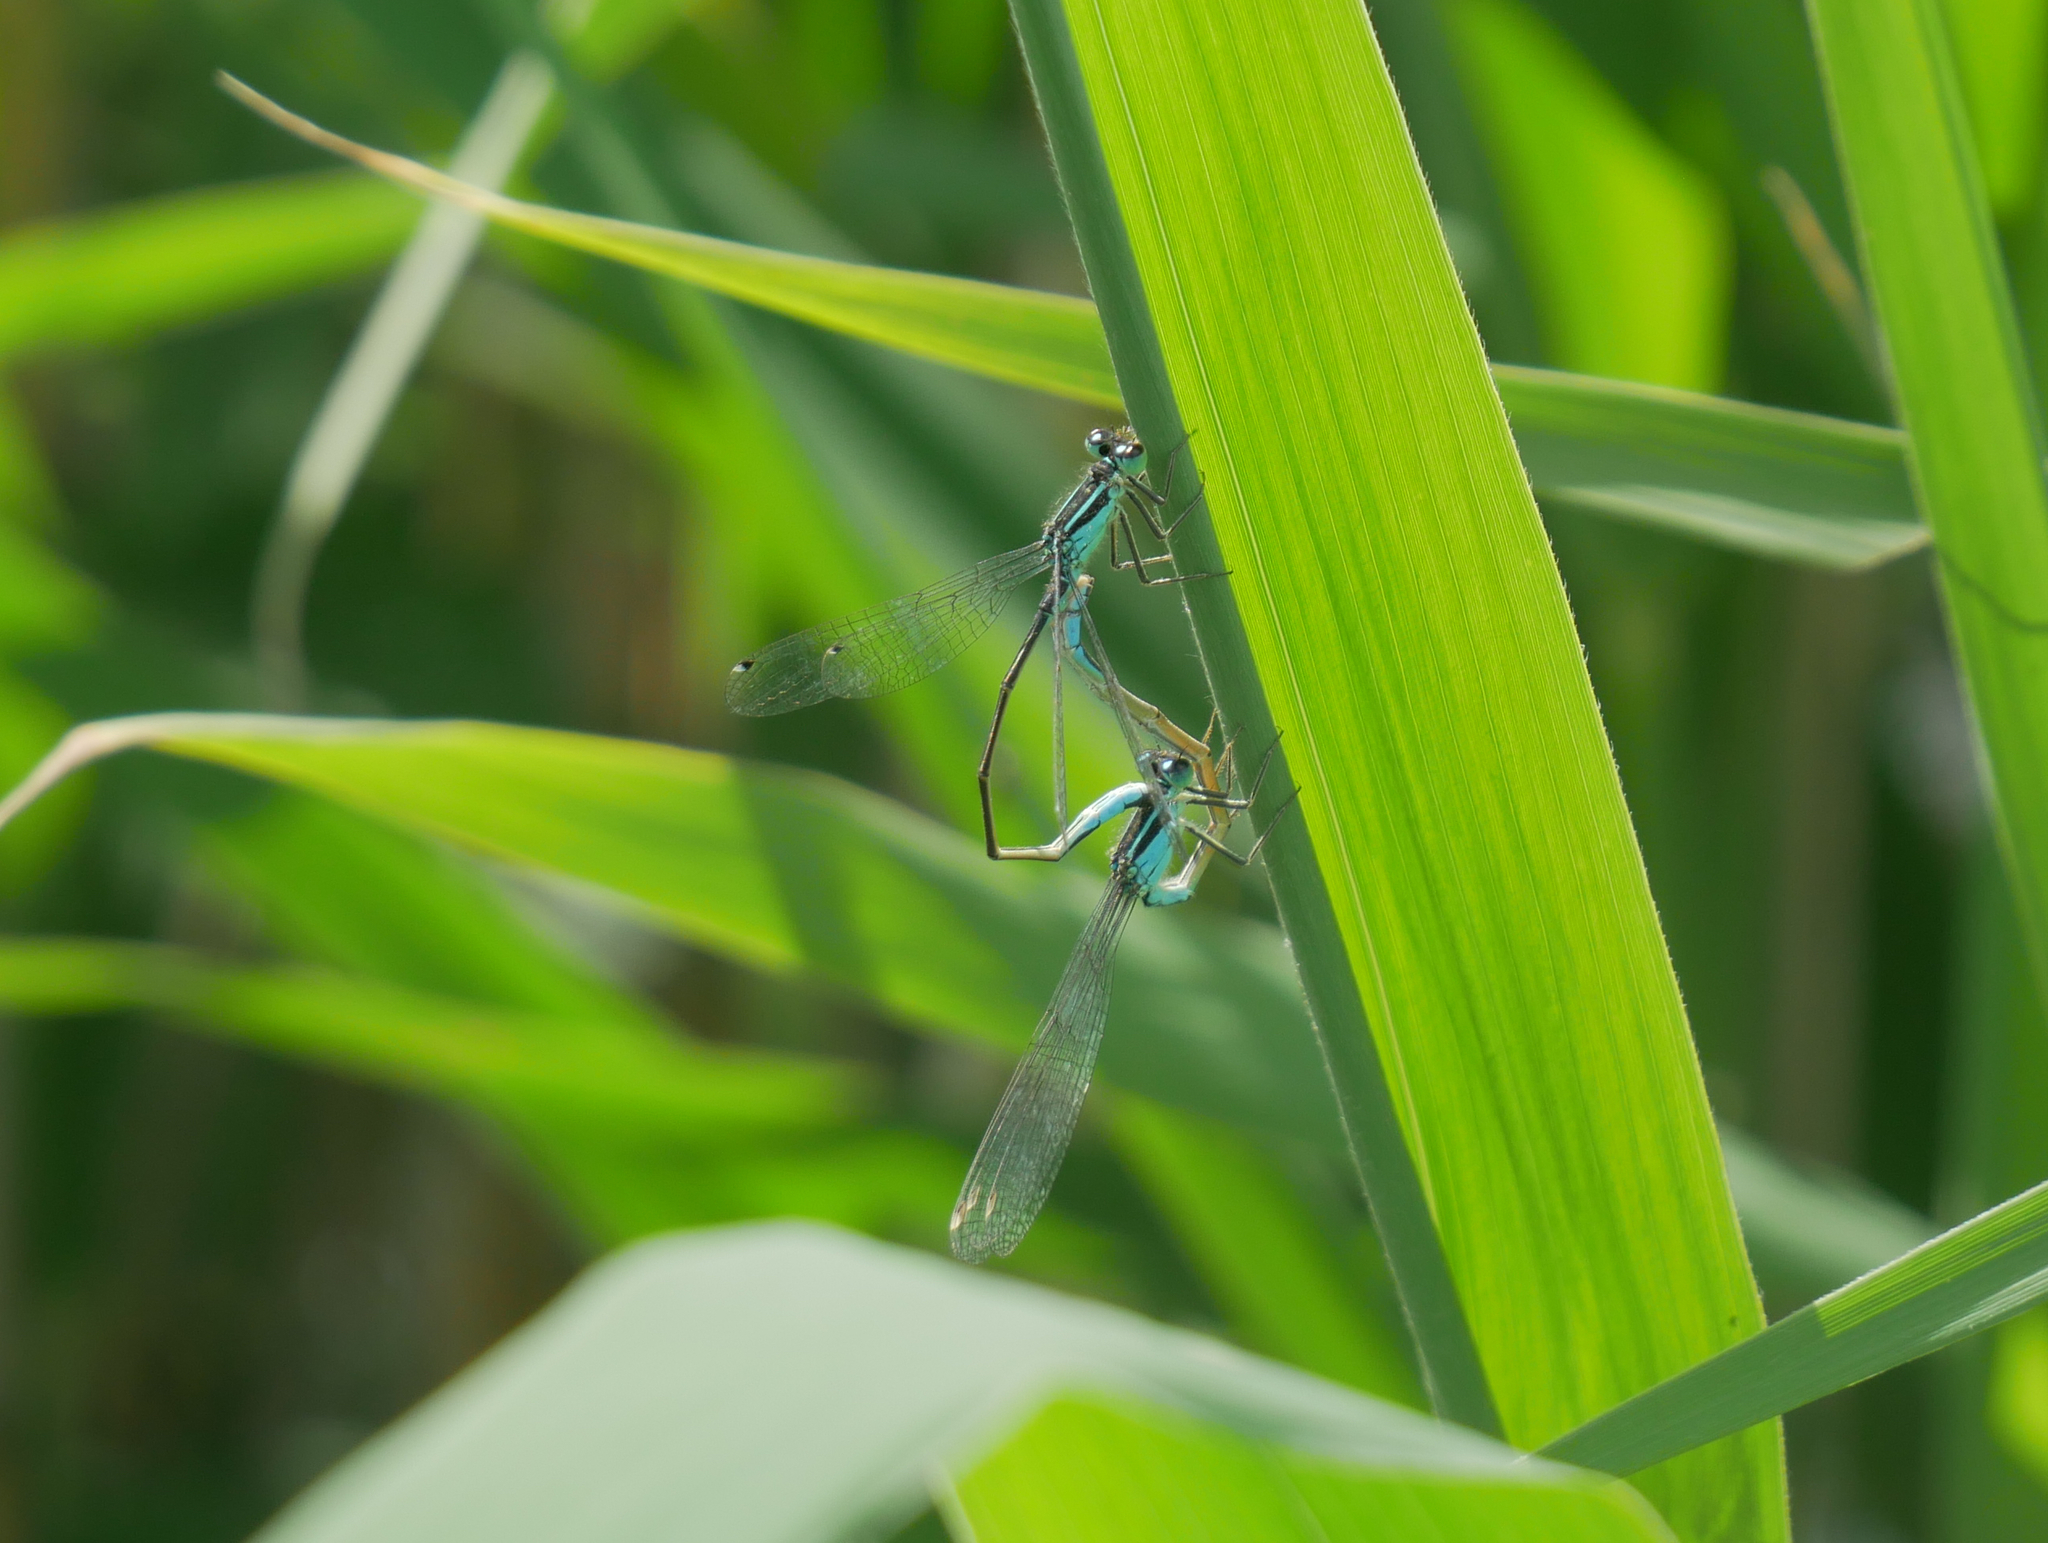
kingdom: Animalia
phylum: Arthropoda
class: Insecta
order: Odonata
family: Coenagrionidae
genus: Ischnura
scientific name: Ischnura elegans
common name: Blue-tailed damselfly
